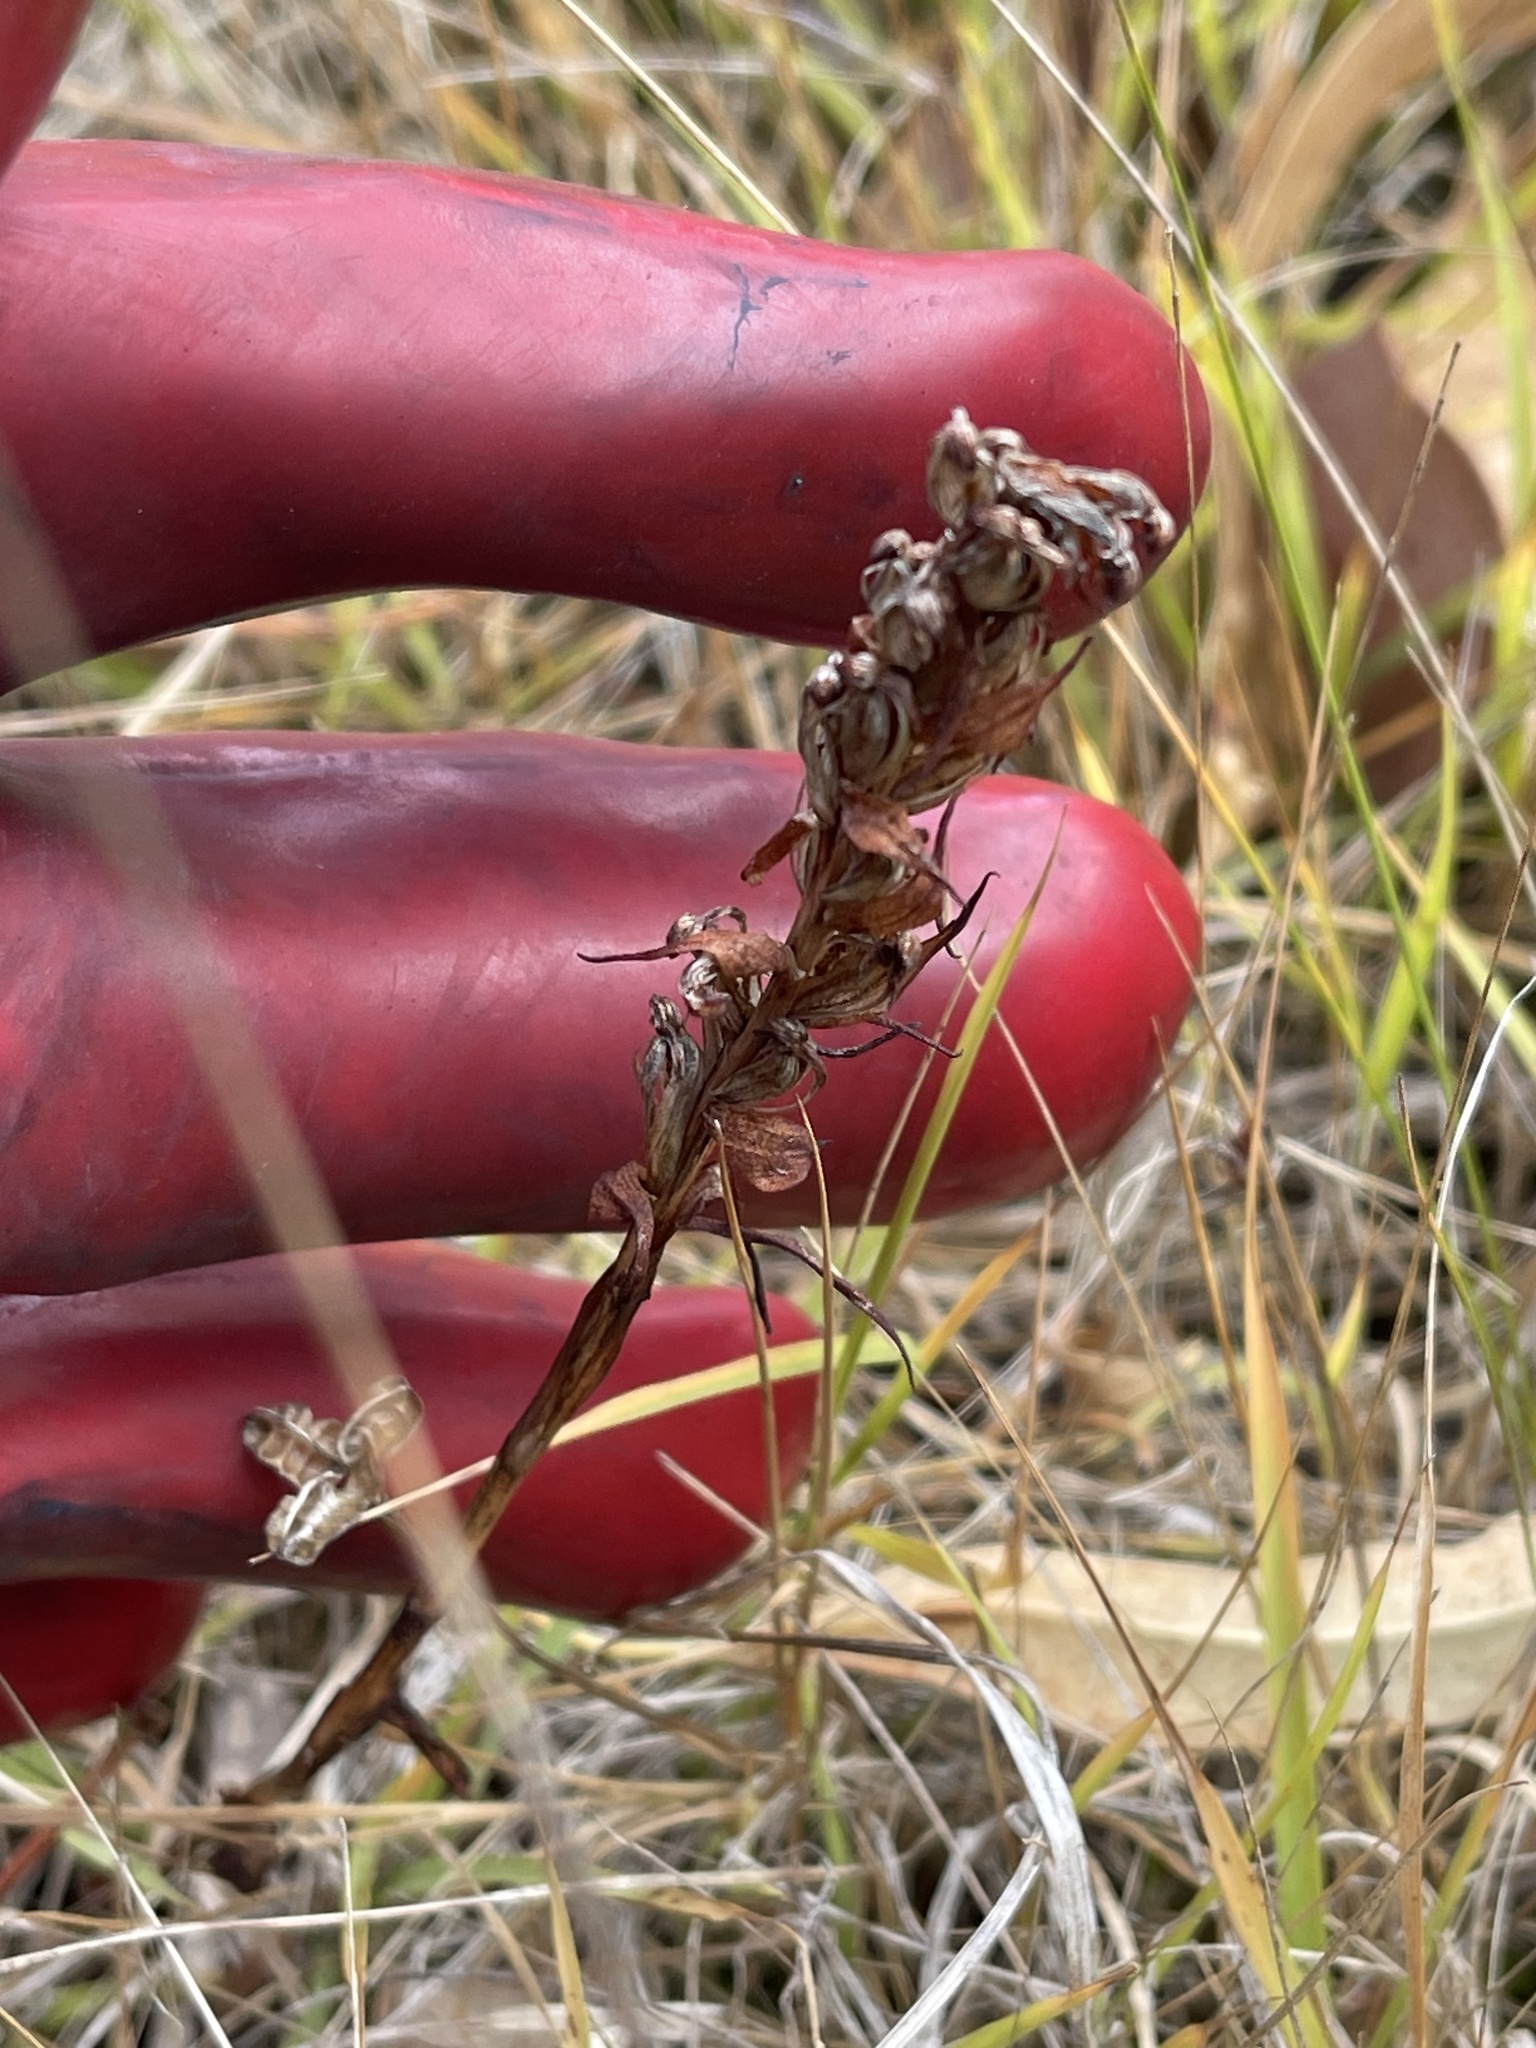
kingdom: Plantae
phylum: Tracheophyta
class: Liliopsida
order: Asparagales
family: Orchidaceae
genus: Disa
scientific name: Disa bracteata
